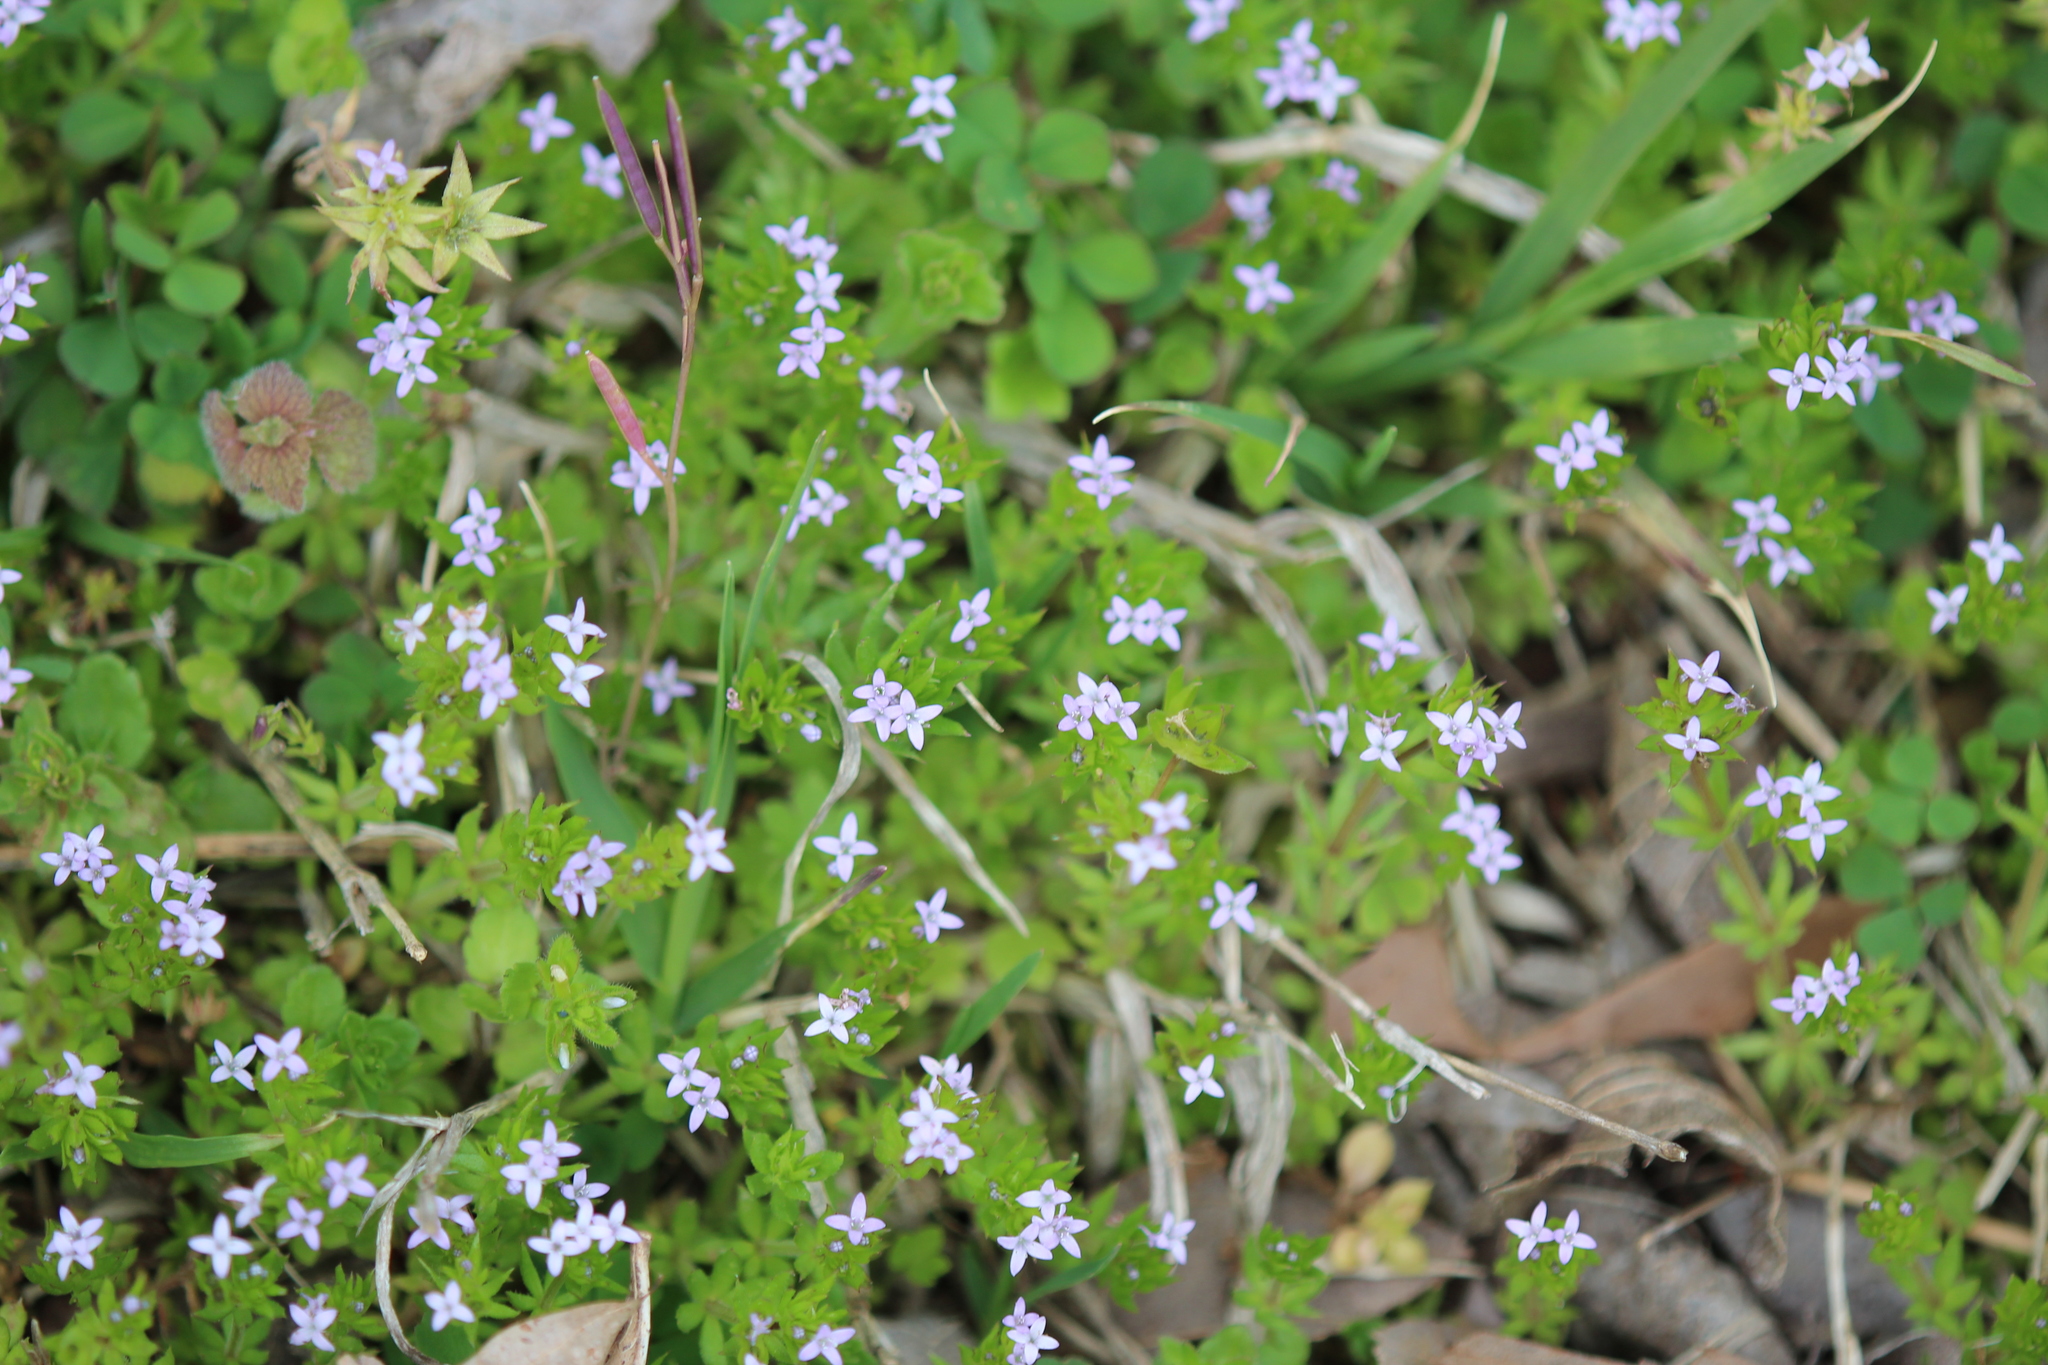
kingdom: Plantae
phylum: Tracheophyta
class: Magnoliopsida
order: Gentianales
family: Rubiaceae
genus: Sherardia
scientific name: Sherardia arvensis
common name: Field madder
